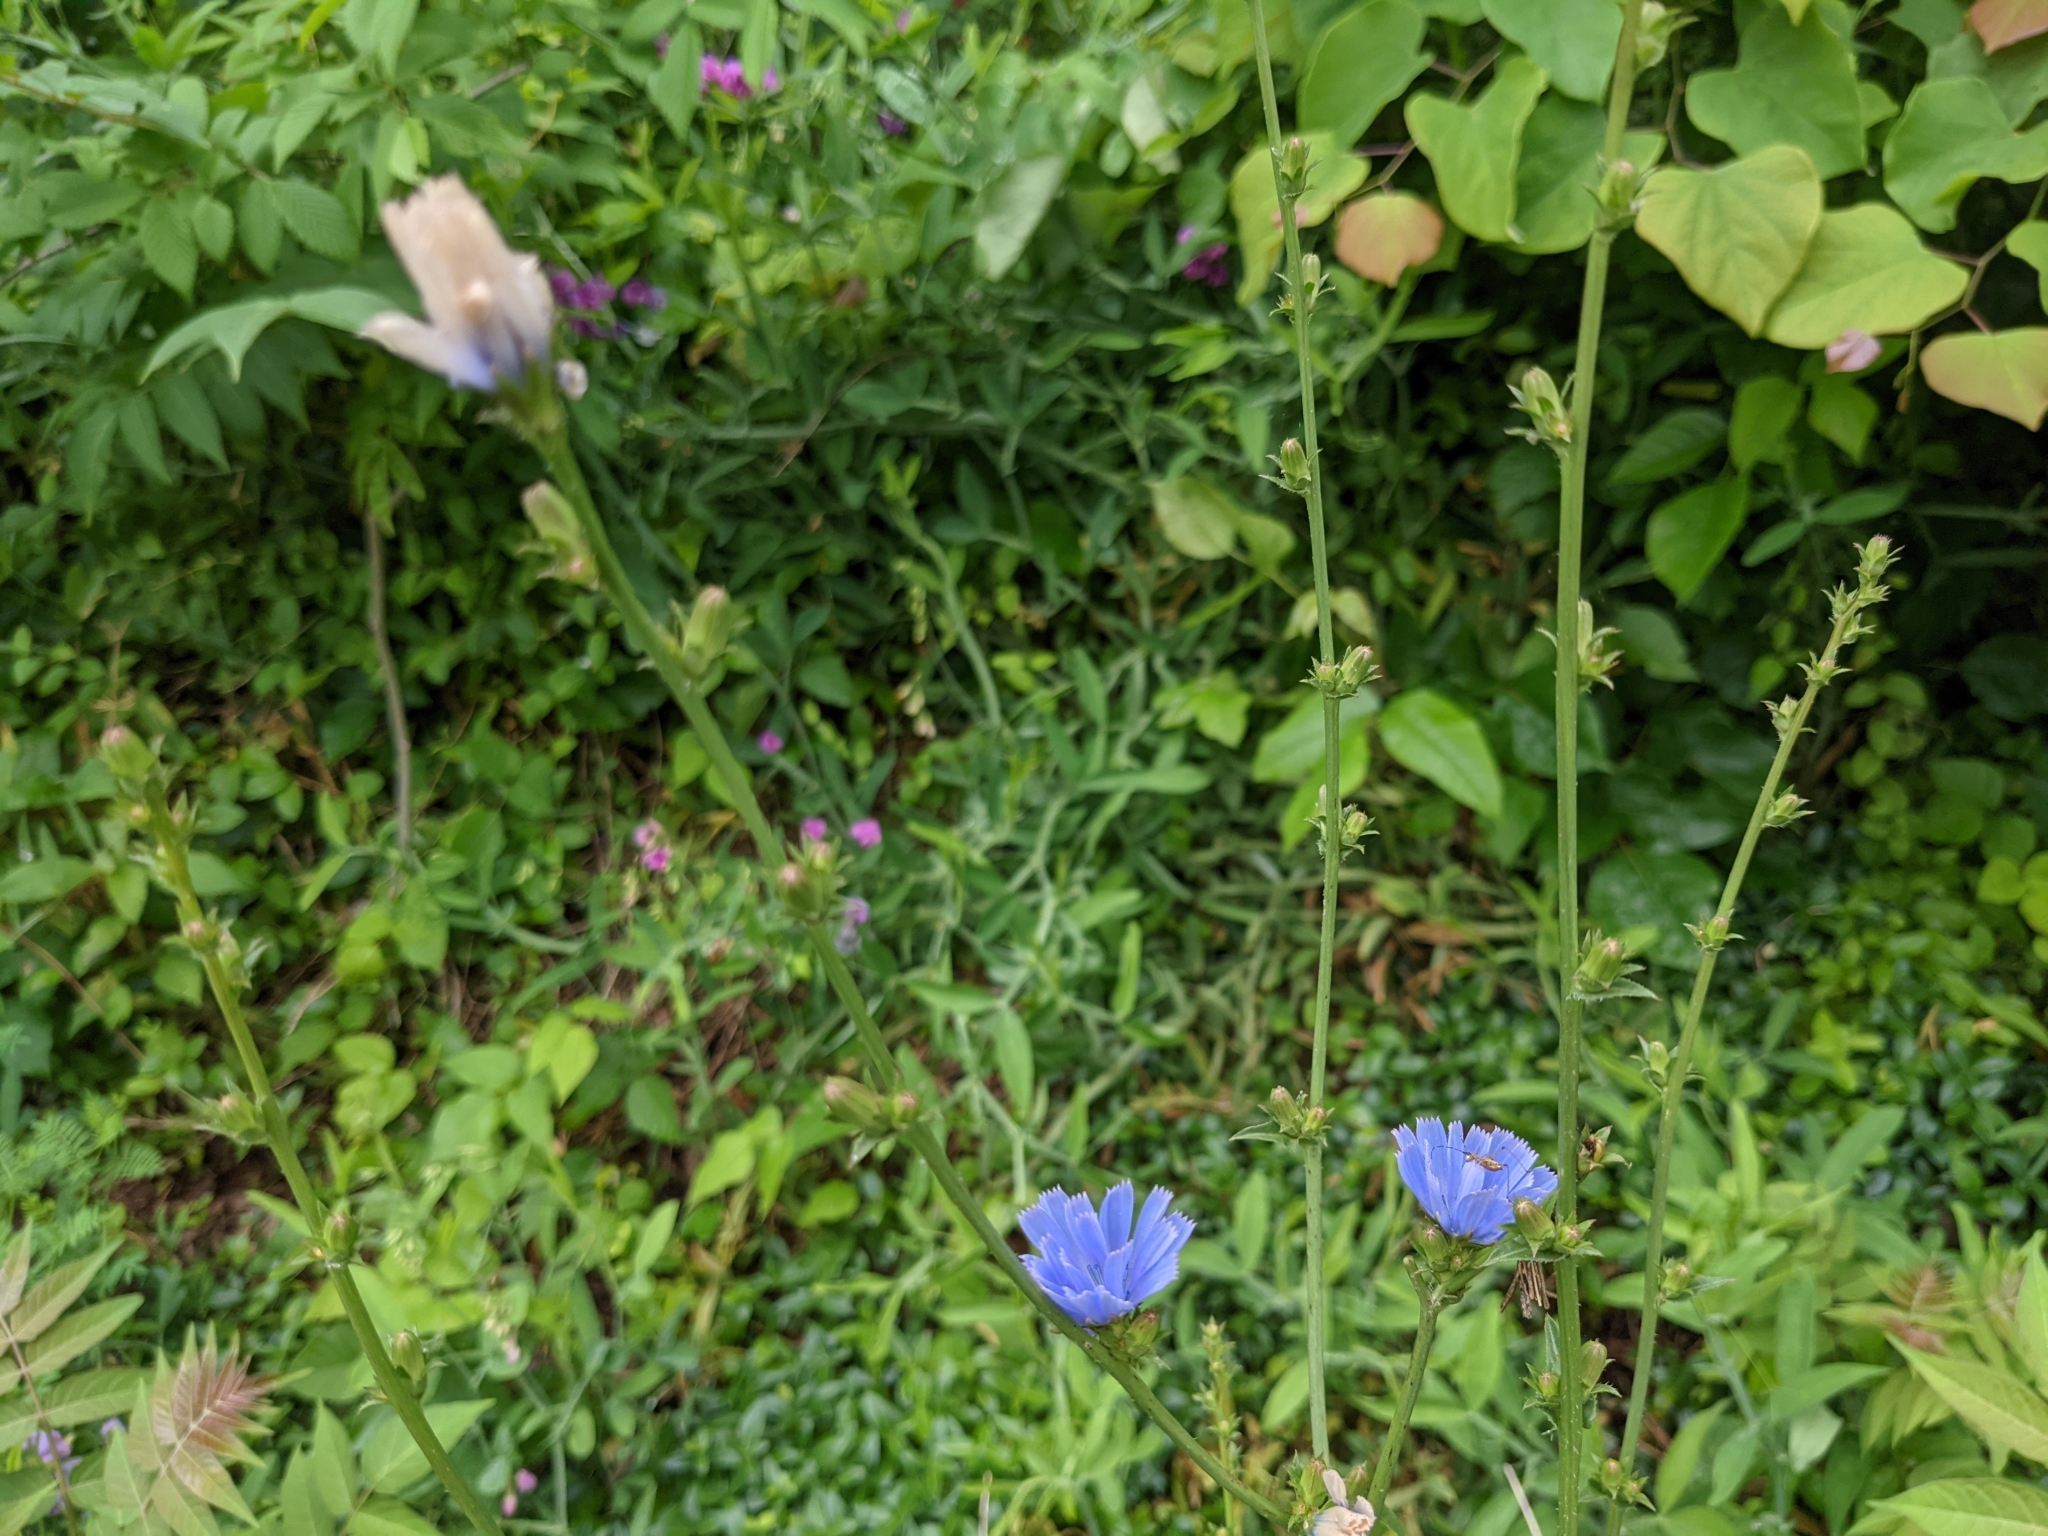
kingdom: Plantae
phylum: Tracheophyta
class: Magnoliopsida
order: Asterales
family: Asteraceae
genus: Cichorium
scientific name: Cichorium intybus
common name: Chicory
